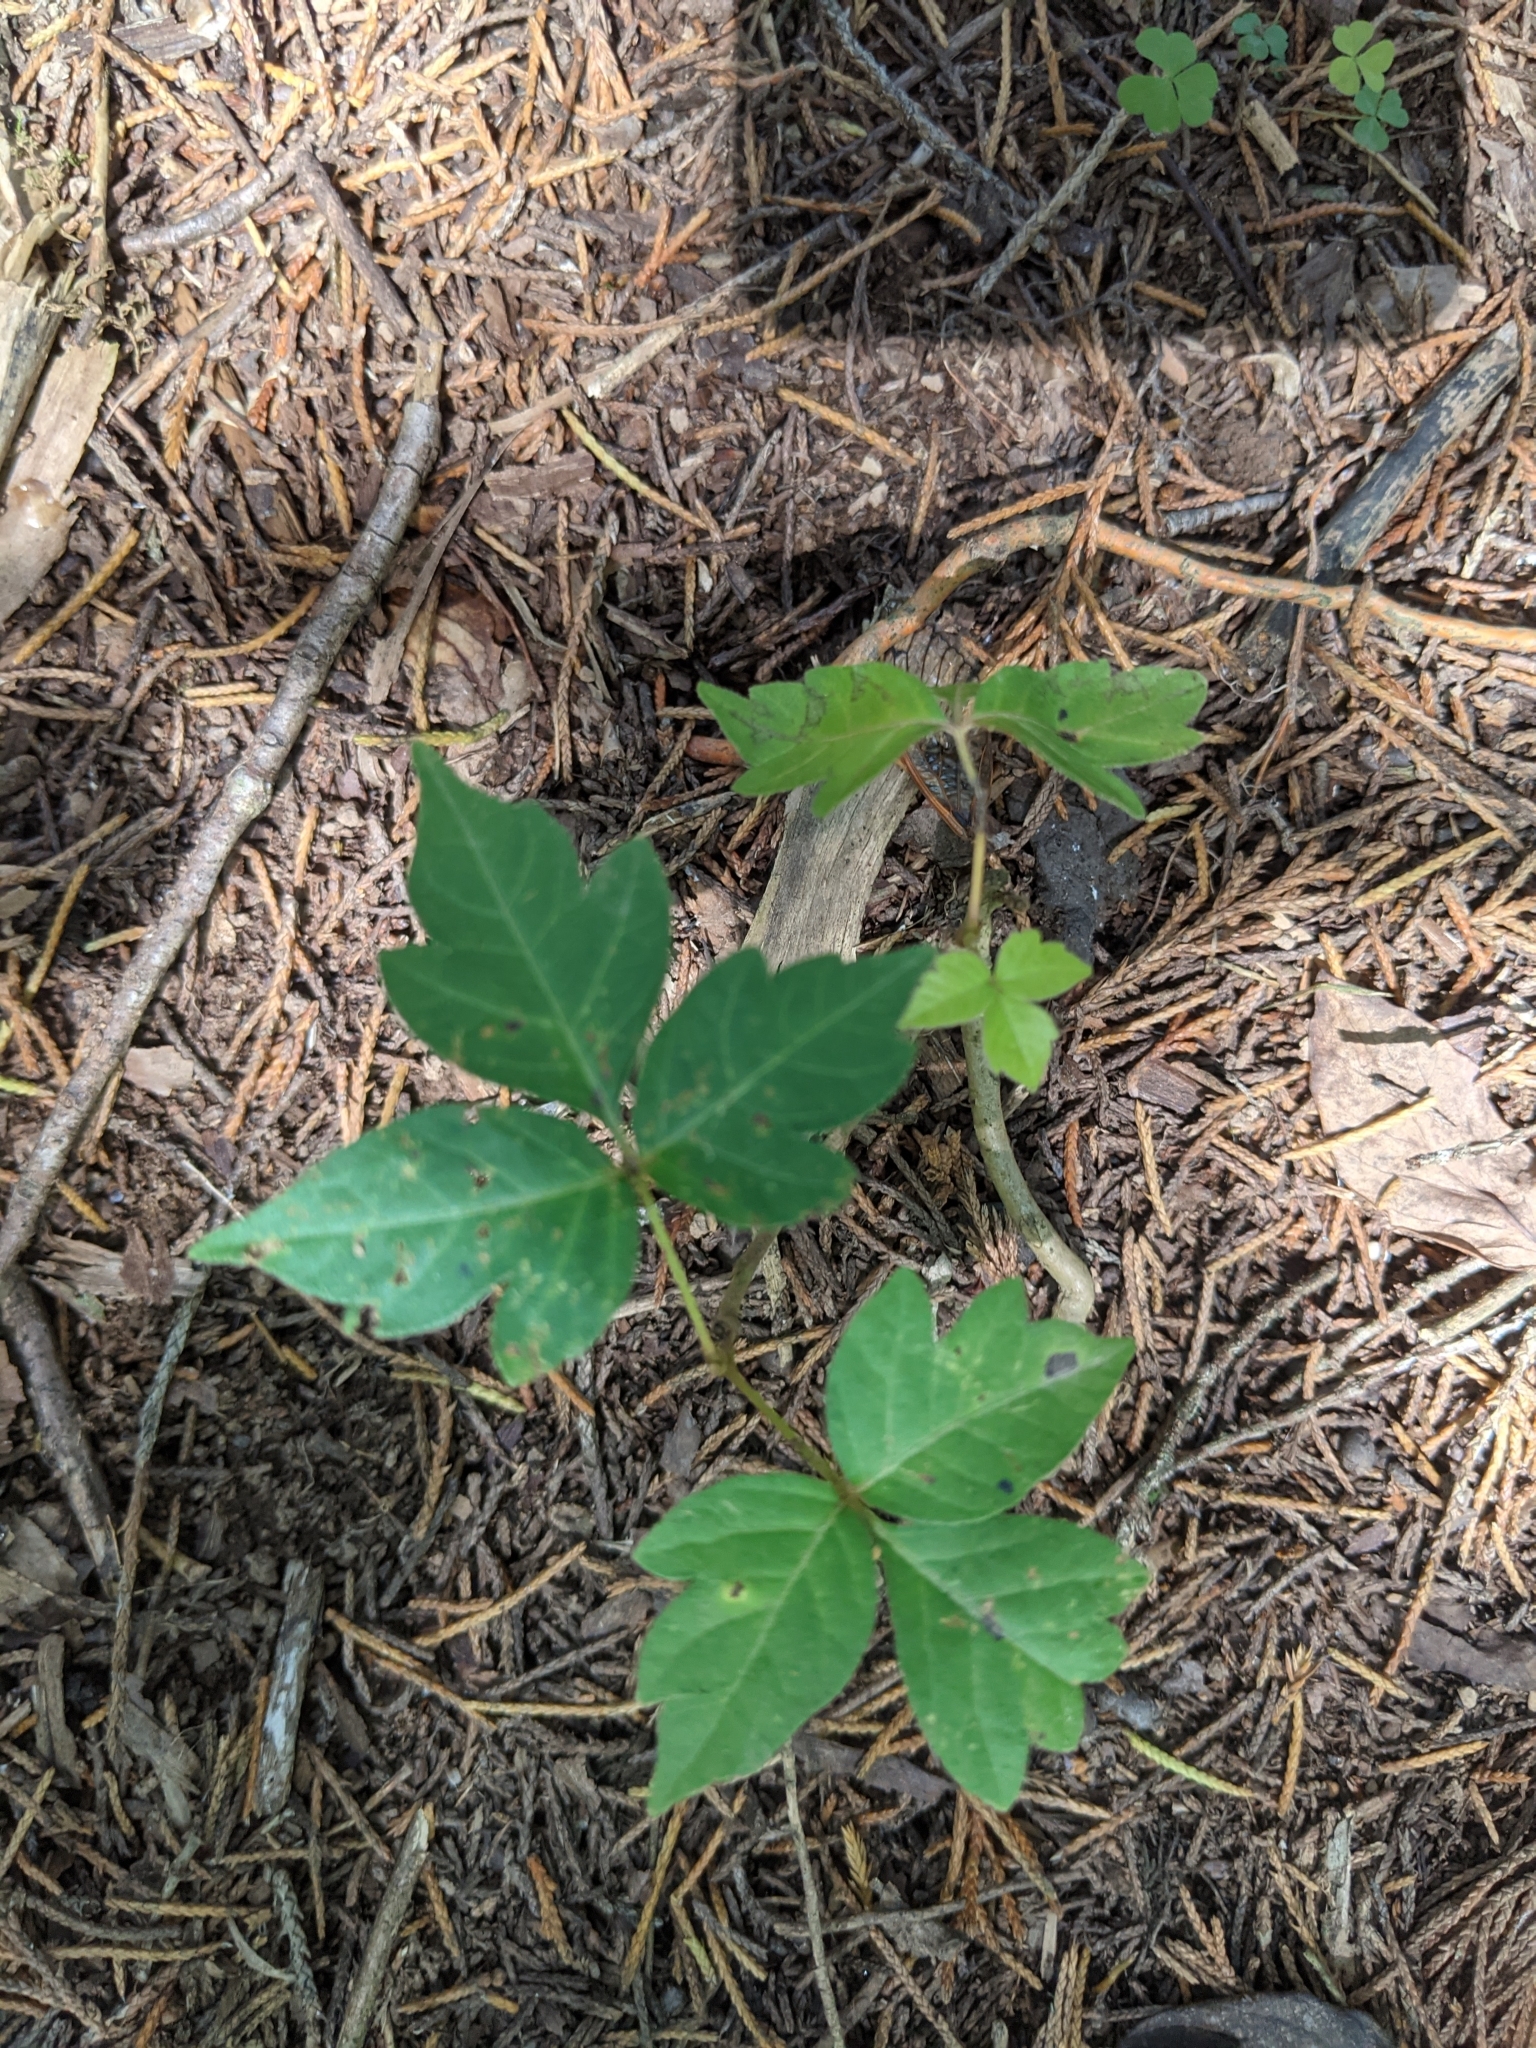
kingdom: Plantae
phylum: Tracheophyta
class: Magnoliopsida
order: Sapindales
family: Anacardiaceae
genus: Toxicodendron
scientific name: Toxicodendron radicans
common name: Poison ivy
